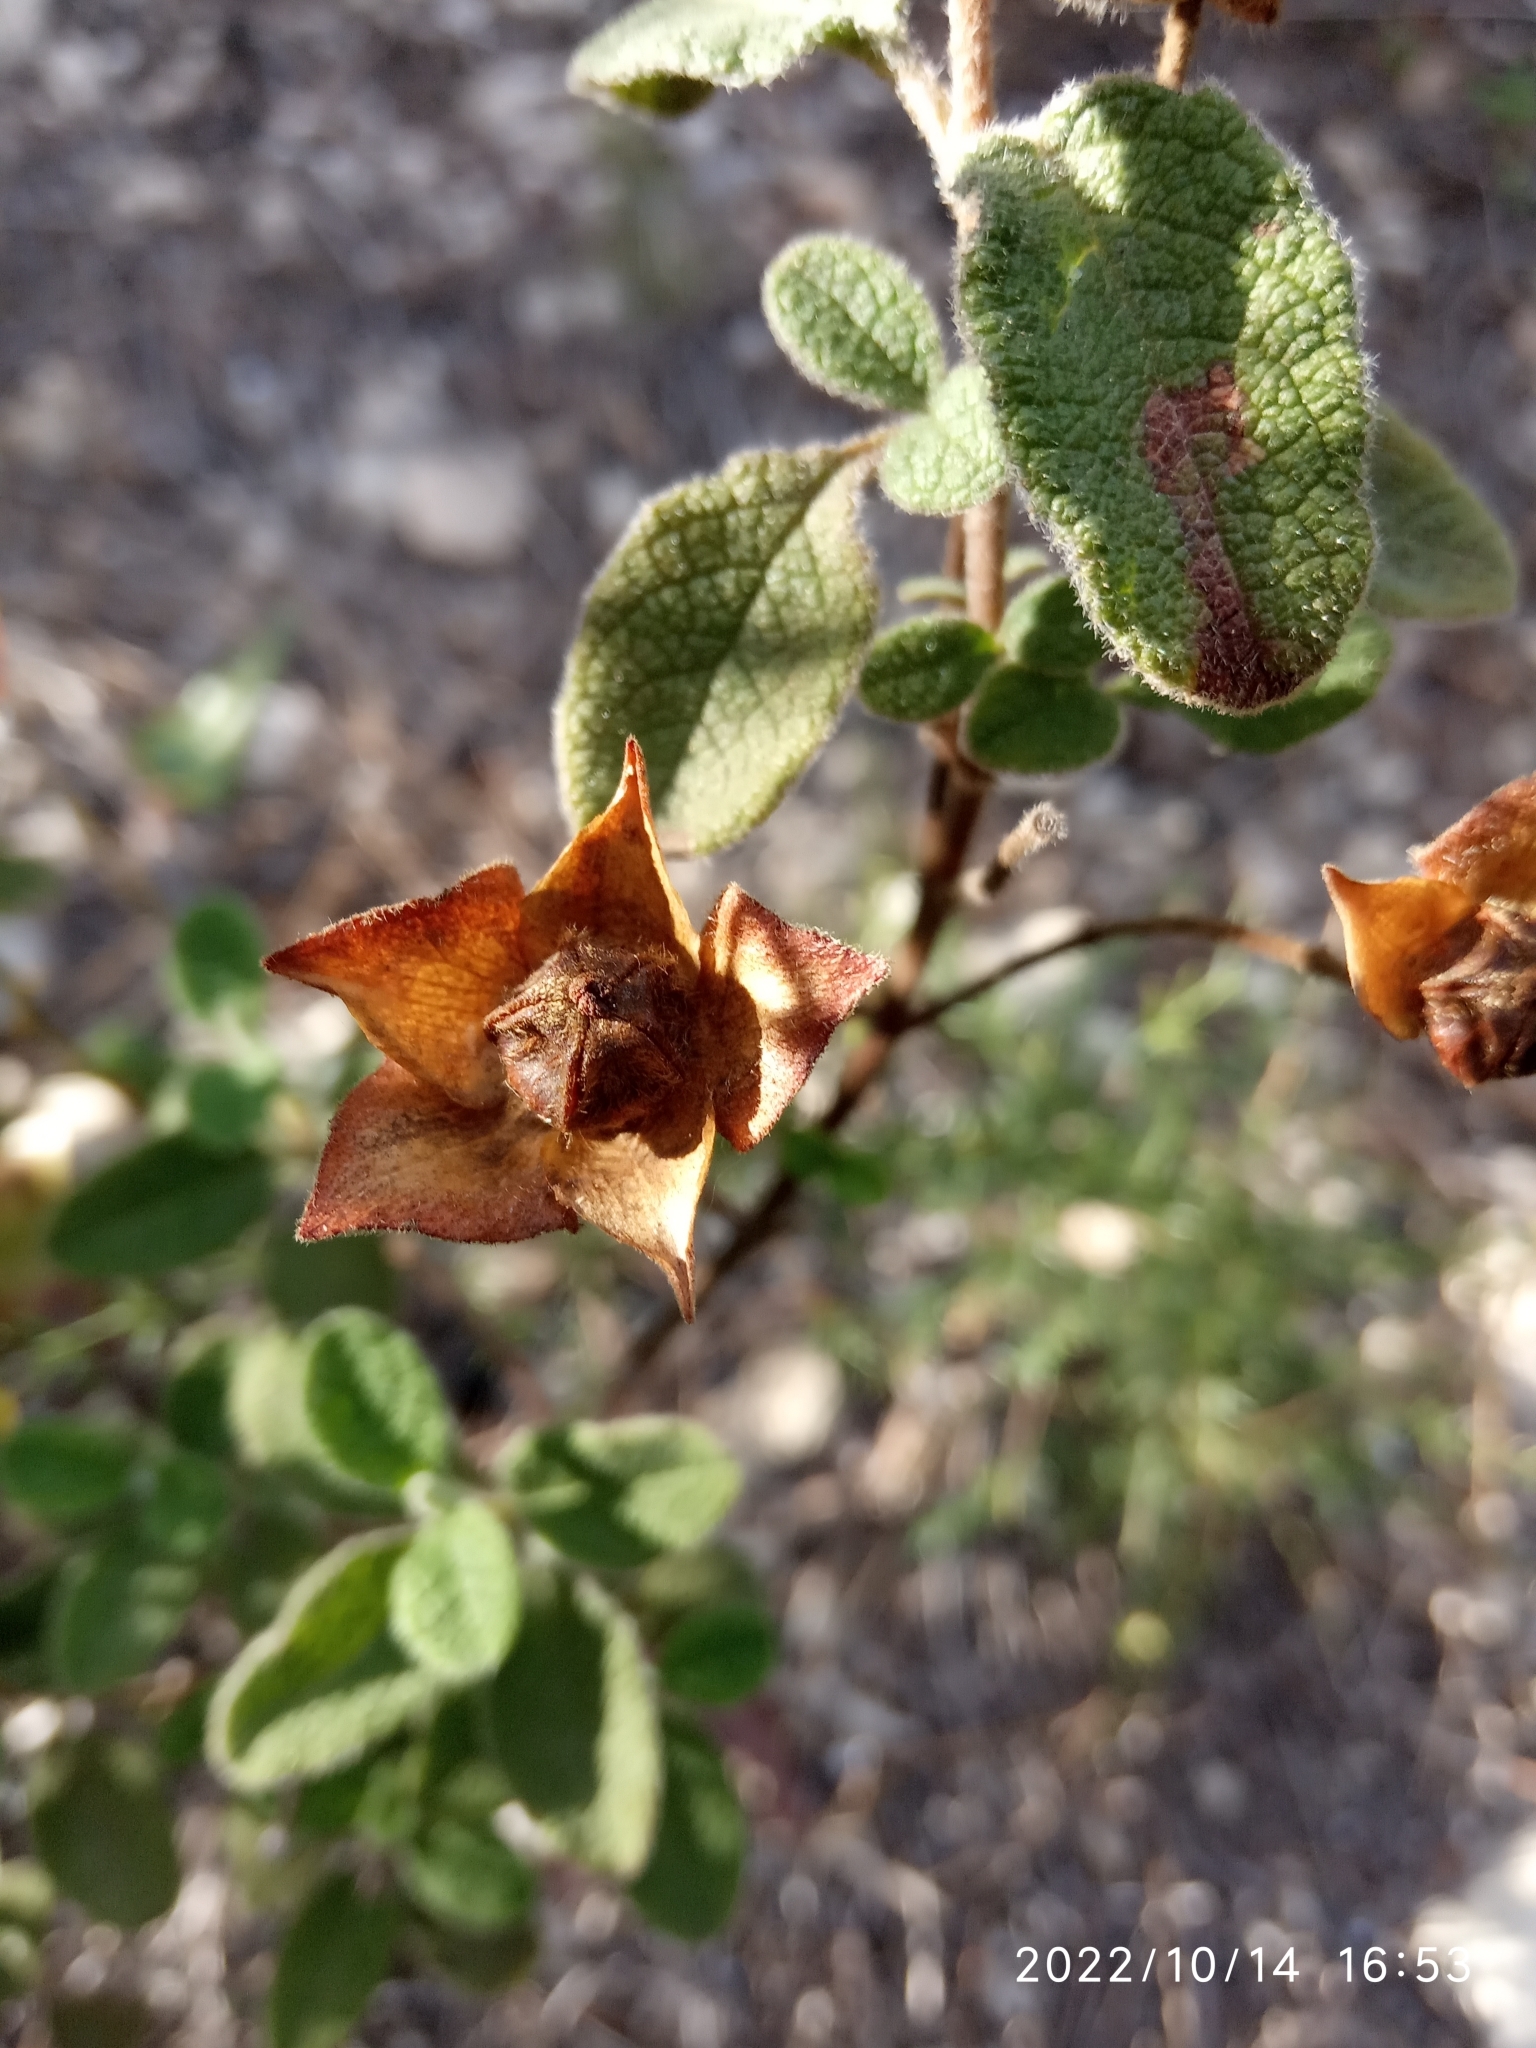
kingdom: Plantae
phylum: Tracheophyta
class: Magnoliopsida
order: Malvales
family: Cistaceae
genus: Cistus
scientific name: Cistus salviifolius
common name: Salvia cistus
